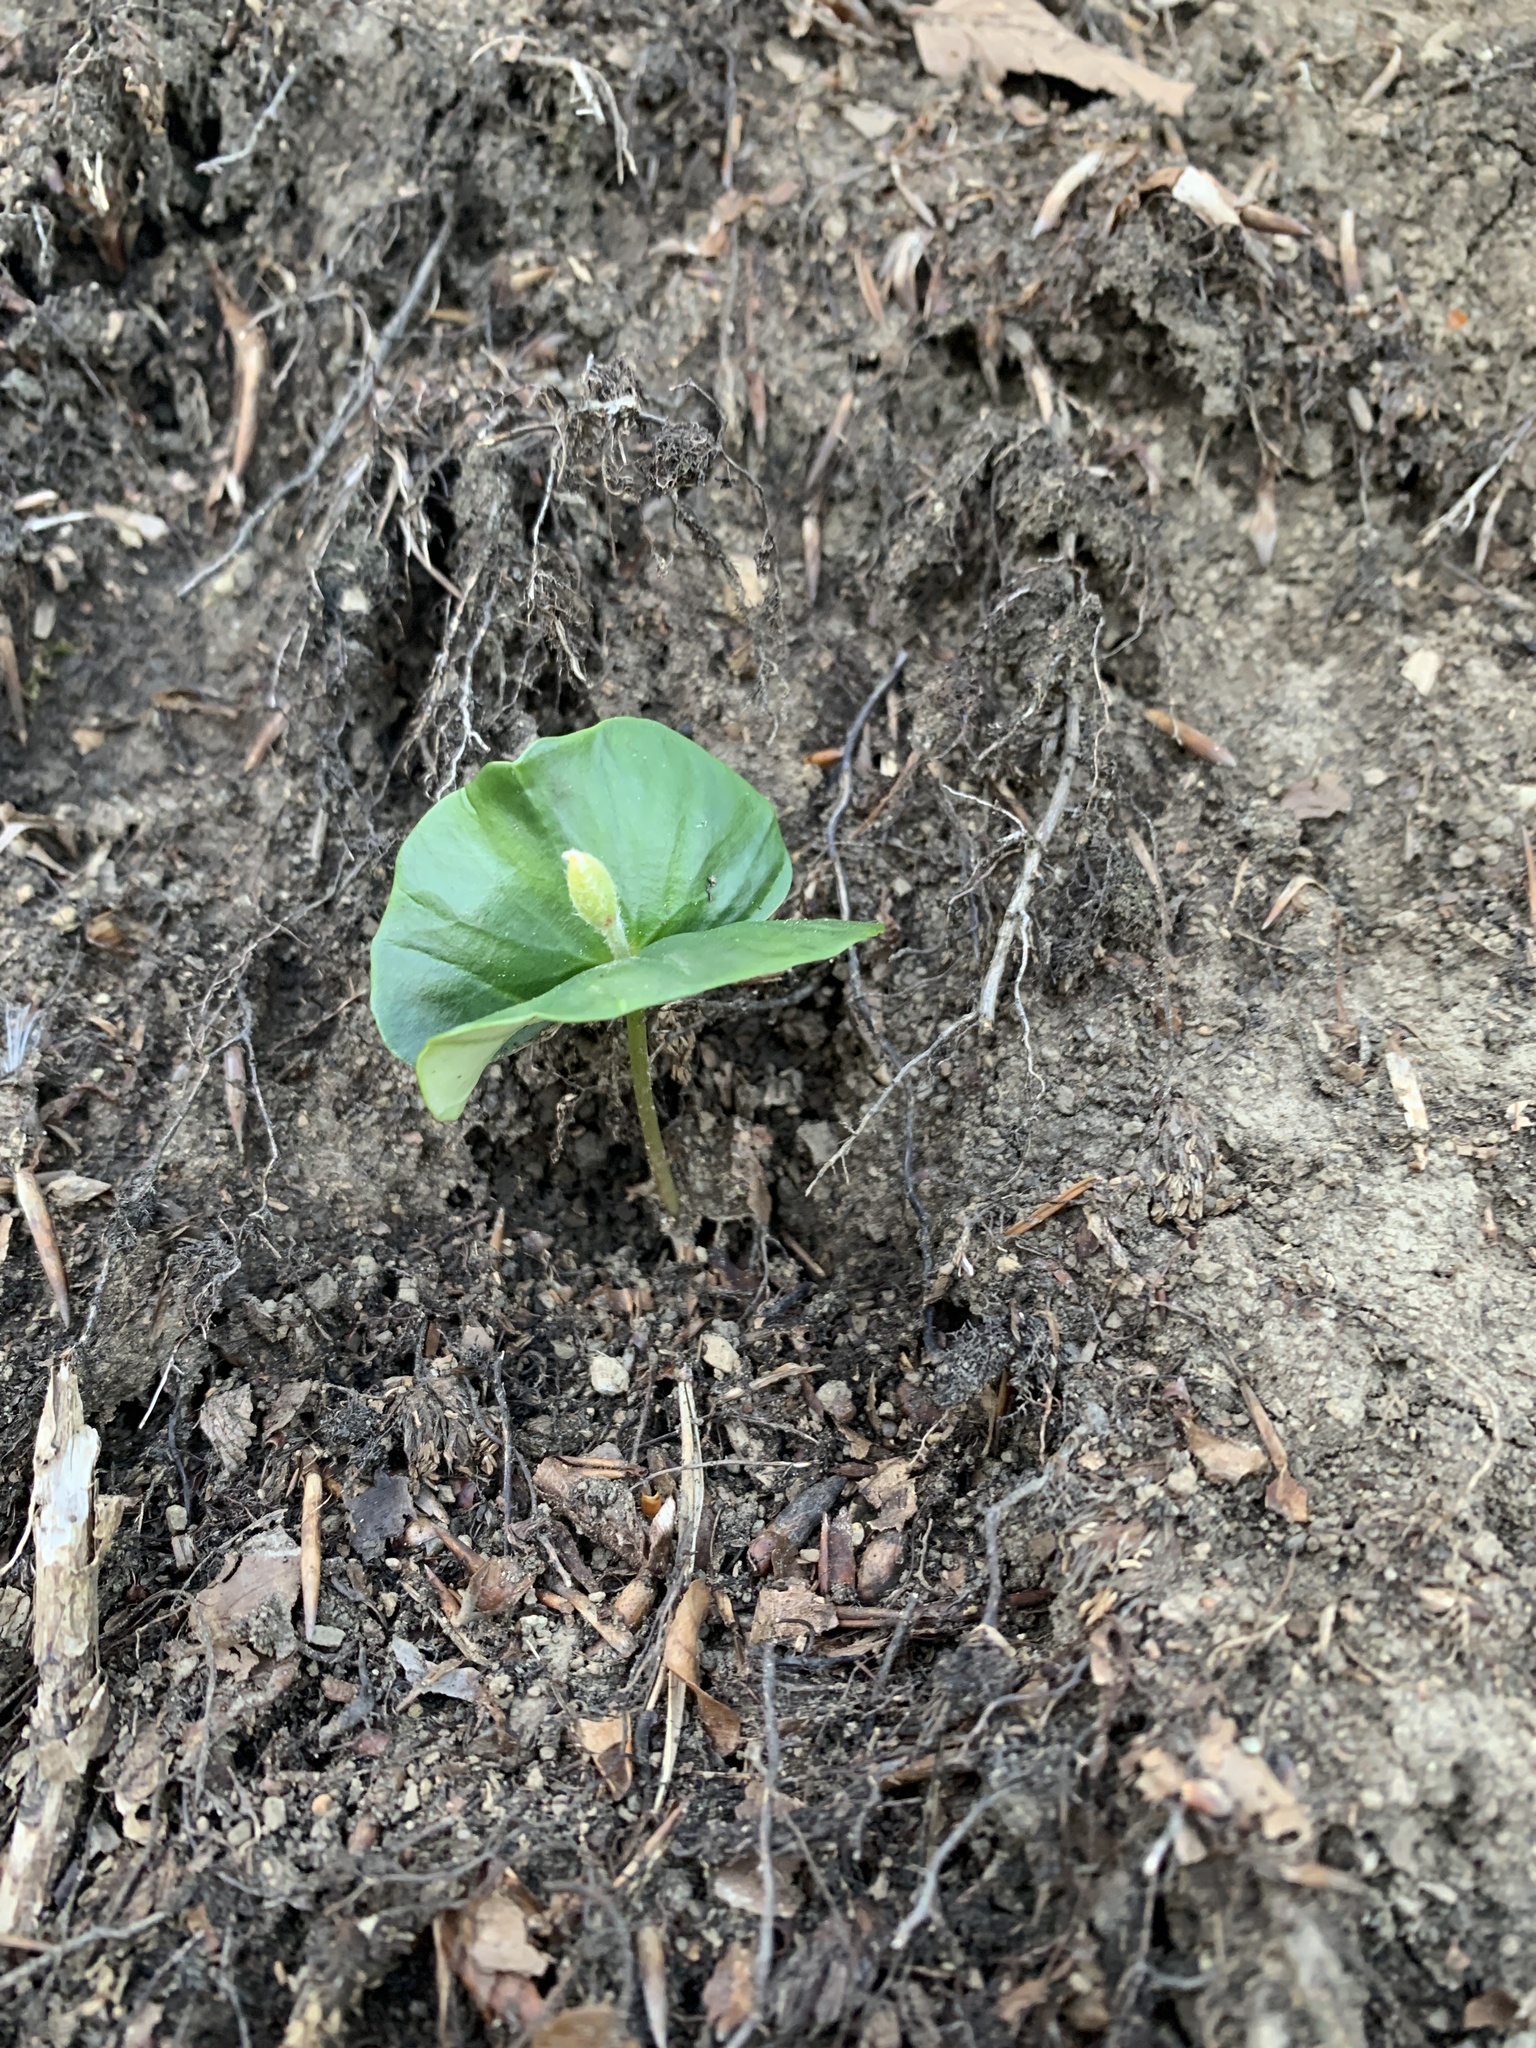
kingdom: Plantae
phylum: Tracheophyta
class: Magnoliopsida
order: Fagales
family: Fagaceae
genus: Fagus
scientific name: Fagus sylvatica
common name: Beech
